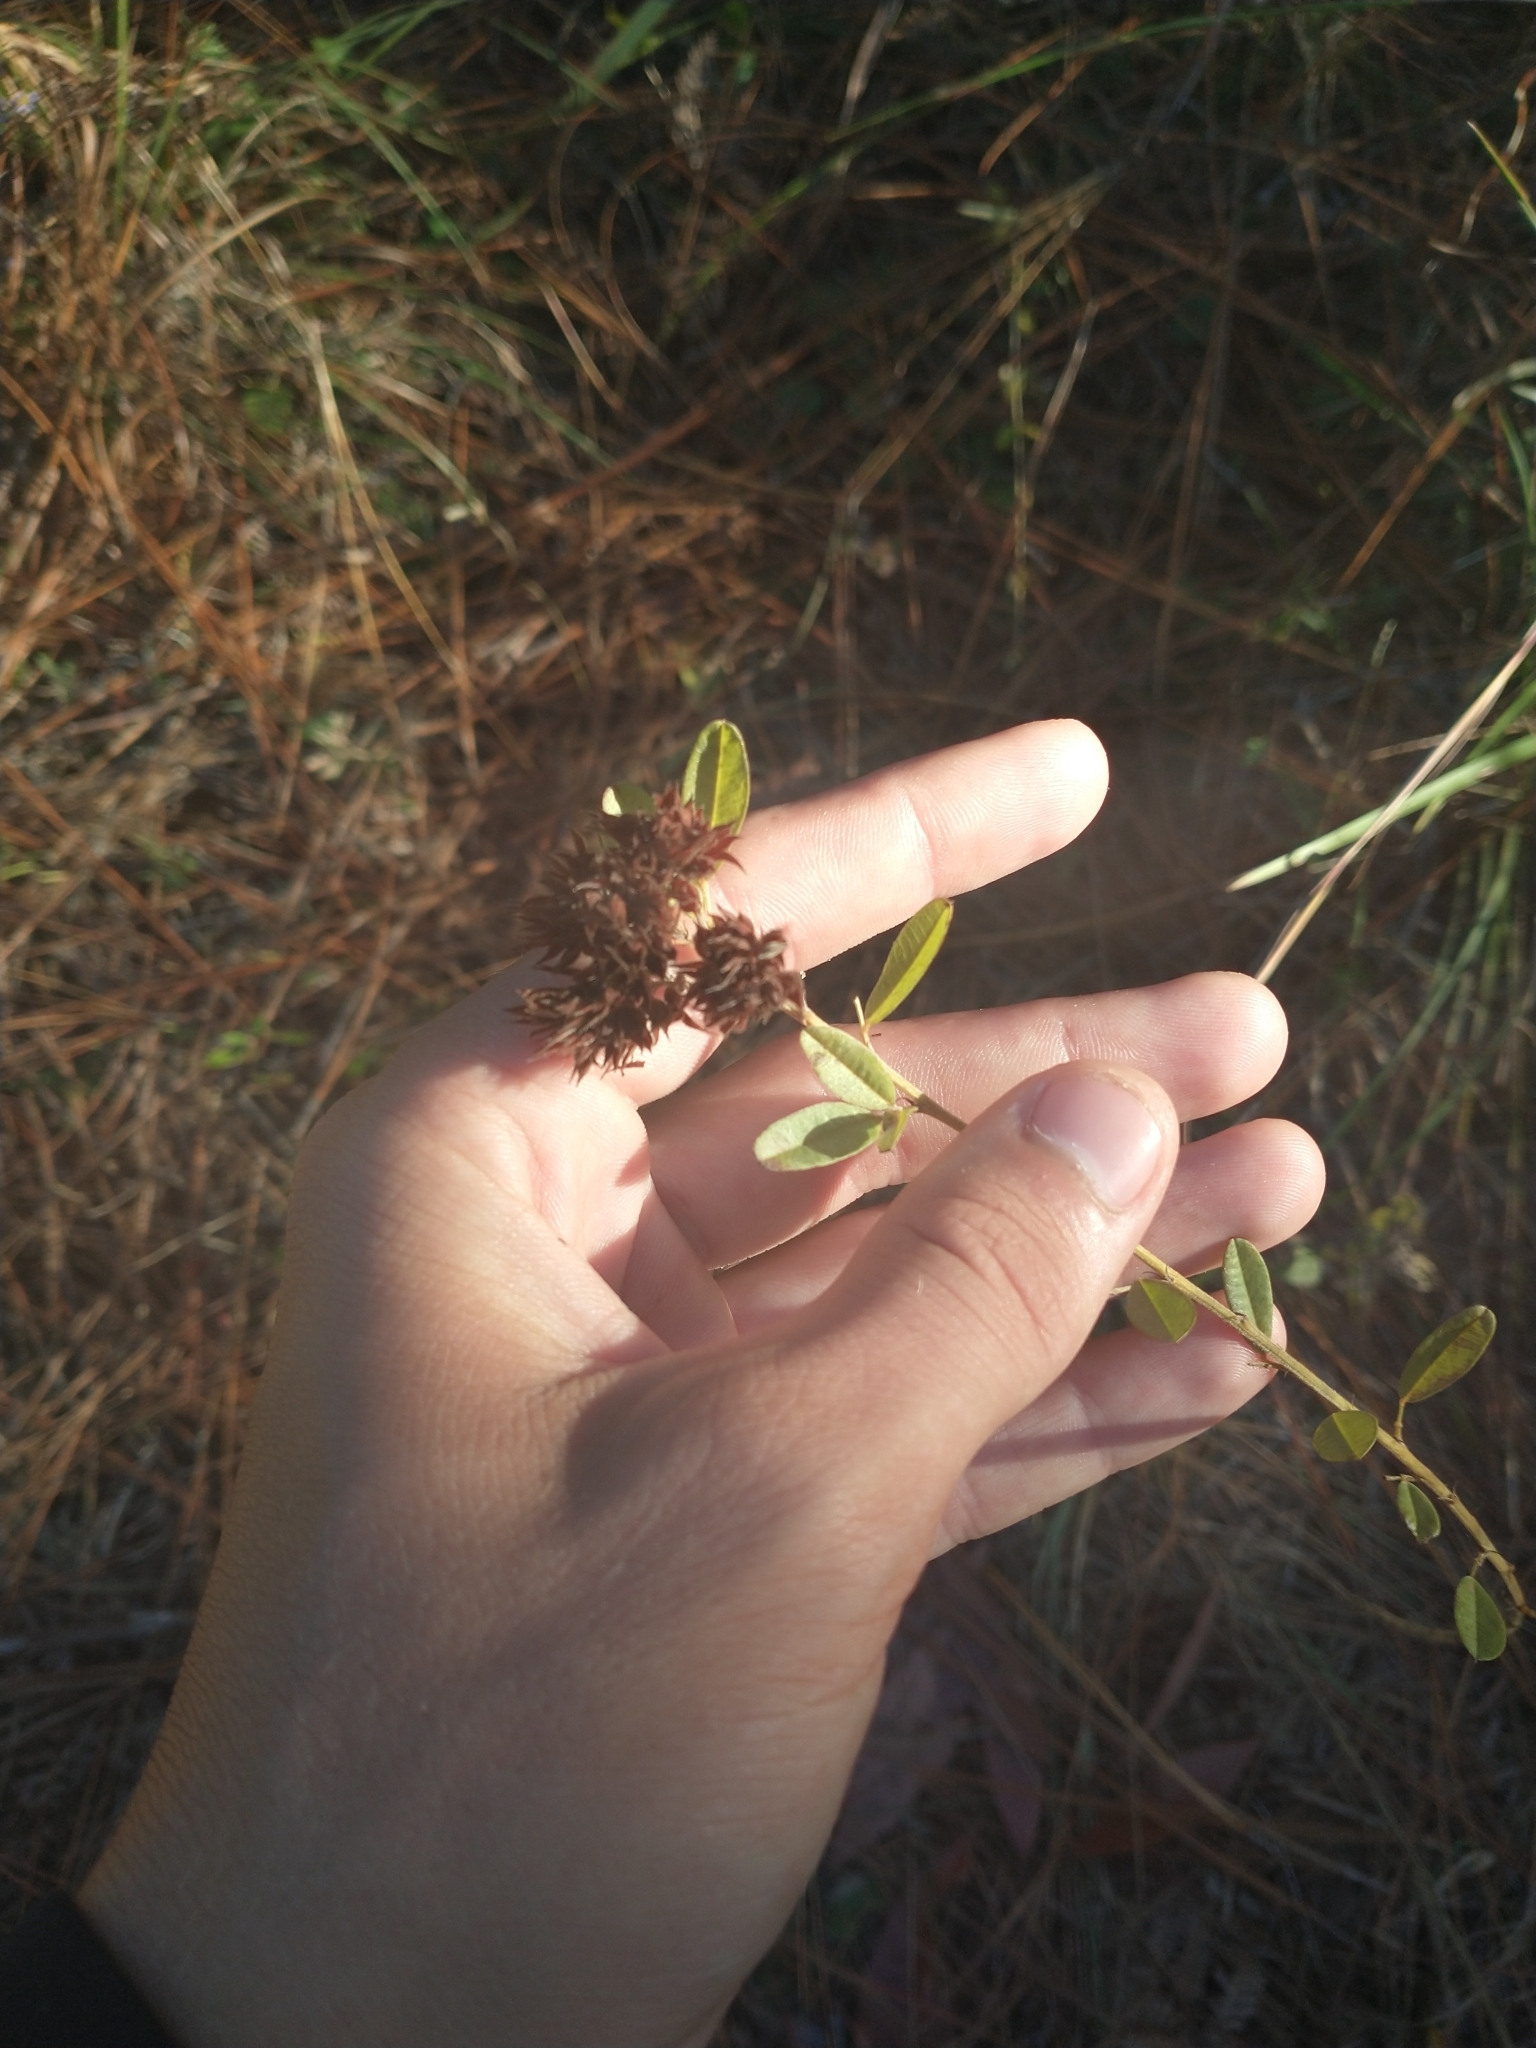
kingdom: Plantae
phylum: Tracheophyta
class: Magnoliopsida
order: Fabales
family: Fabaceae
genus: Lespedeza
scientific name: Lespedeza capitata
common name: Dusty clover
